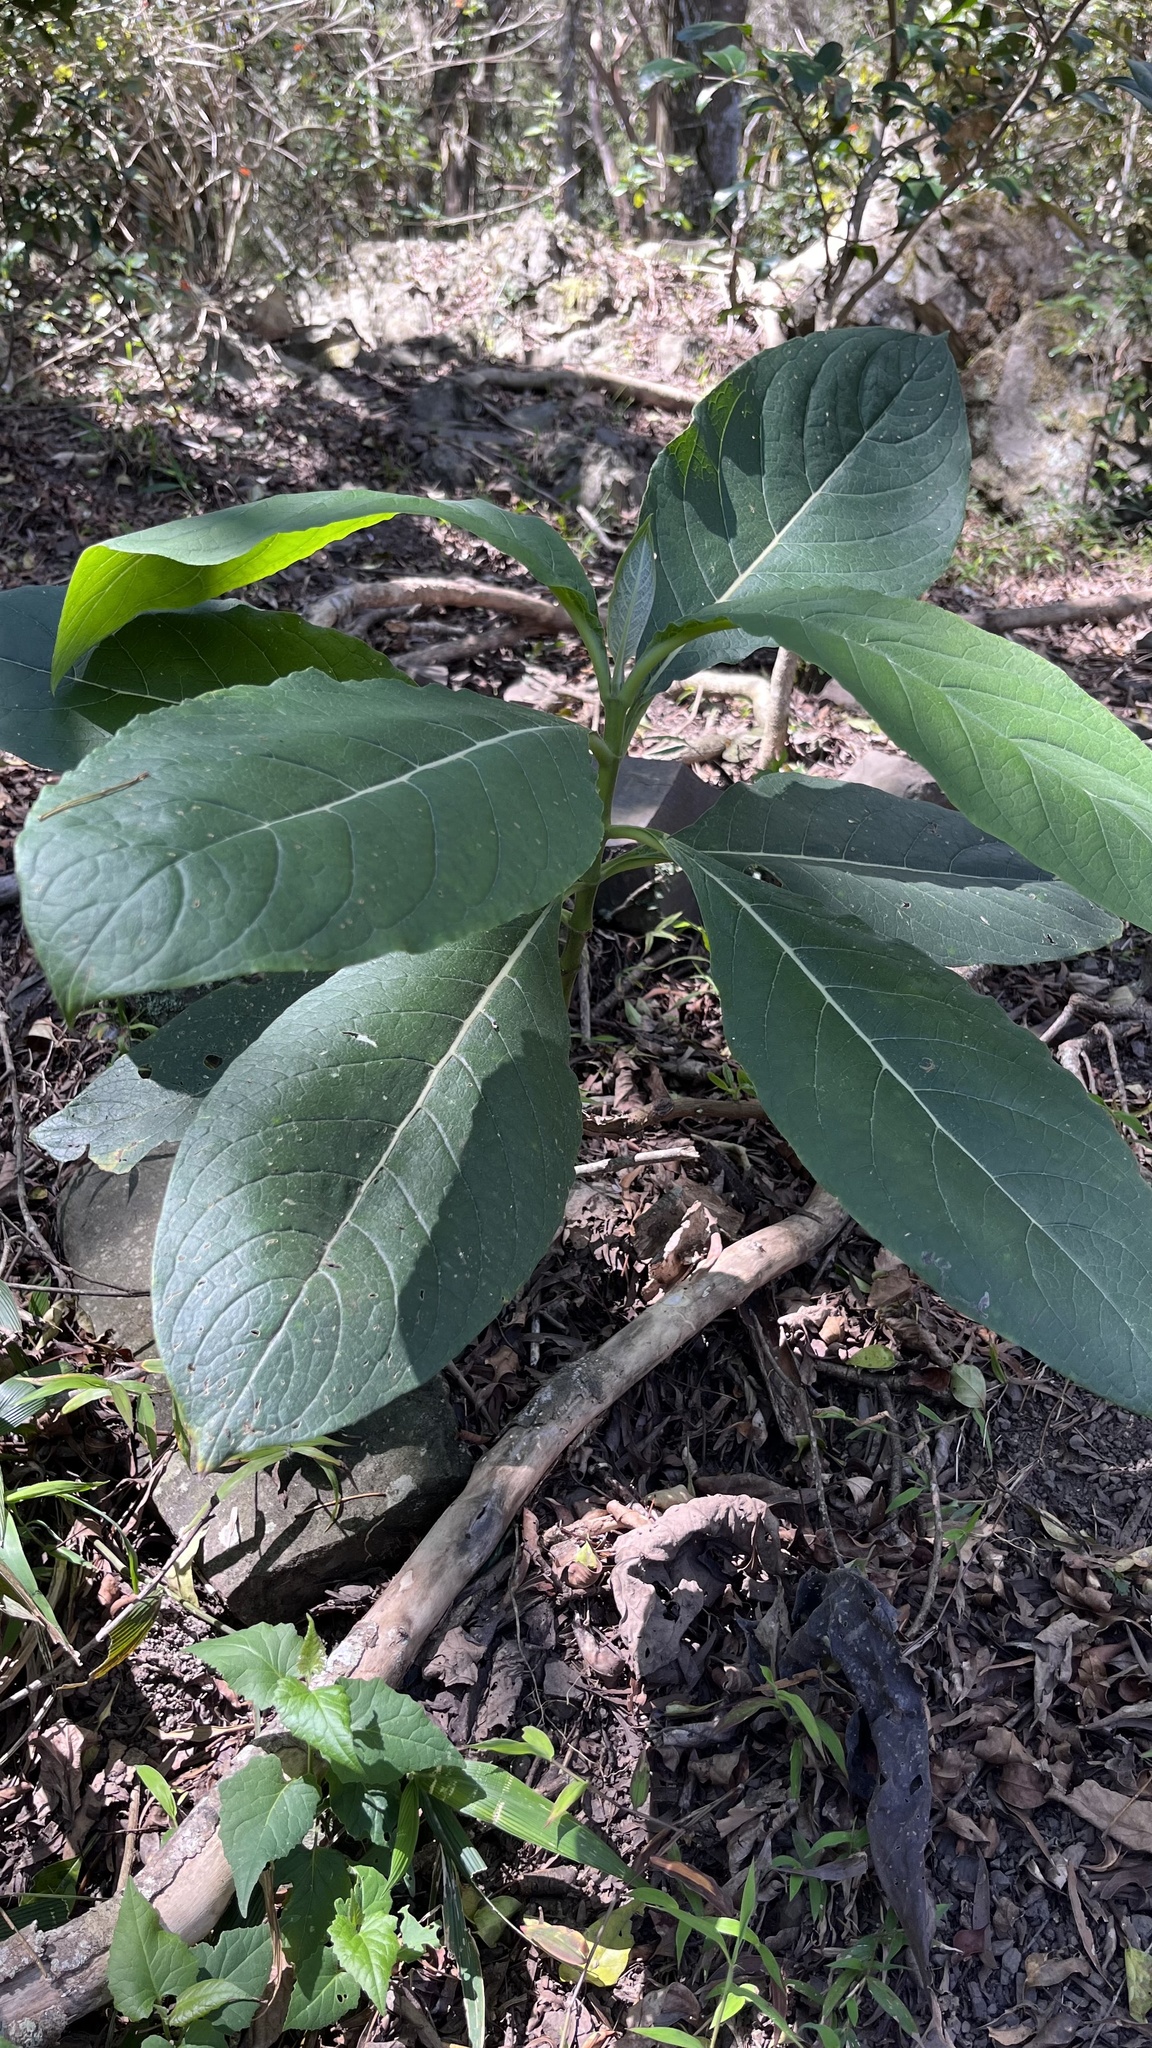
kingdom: Plantae
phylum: Tracheophyta
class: Magnoliopsida
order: Boraginales
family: Boraginaceae
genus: Trichodesma
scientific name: Trichodesma calycosum
